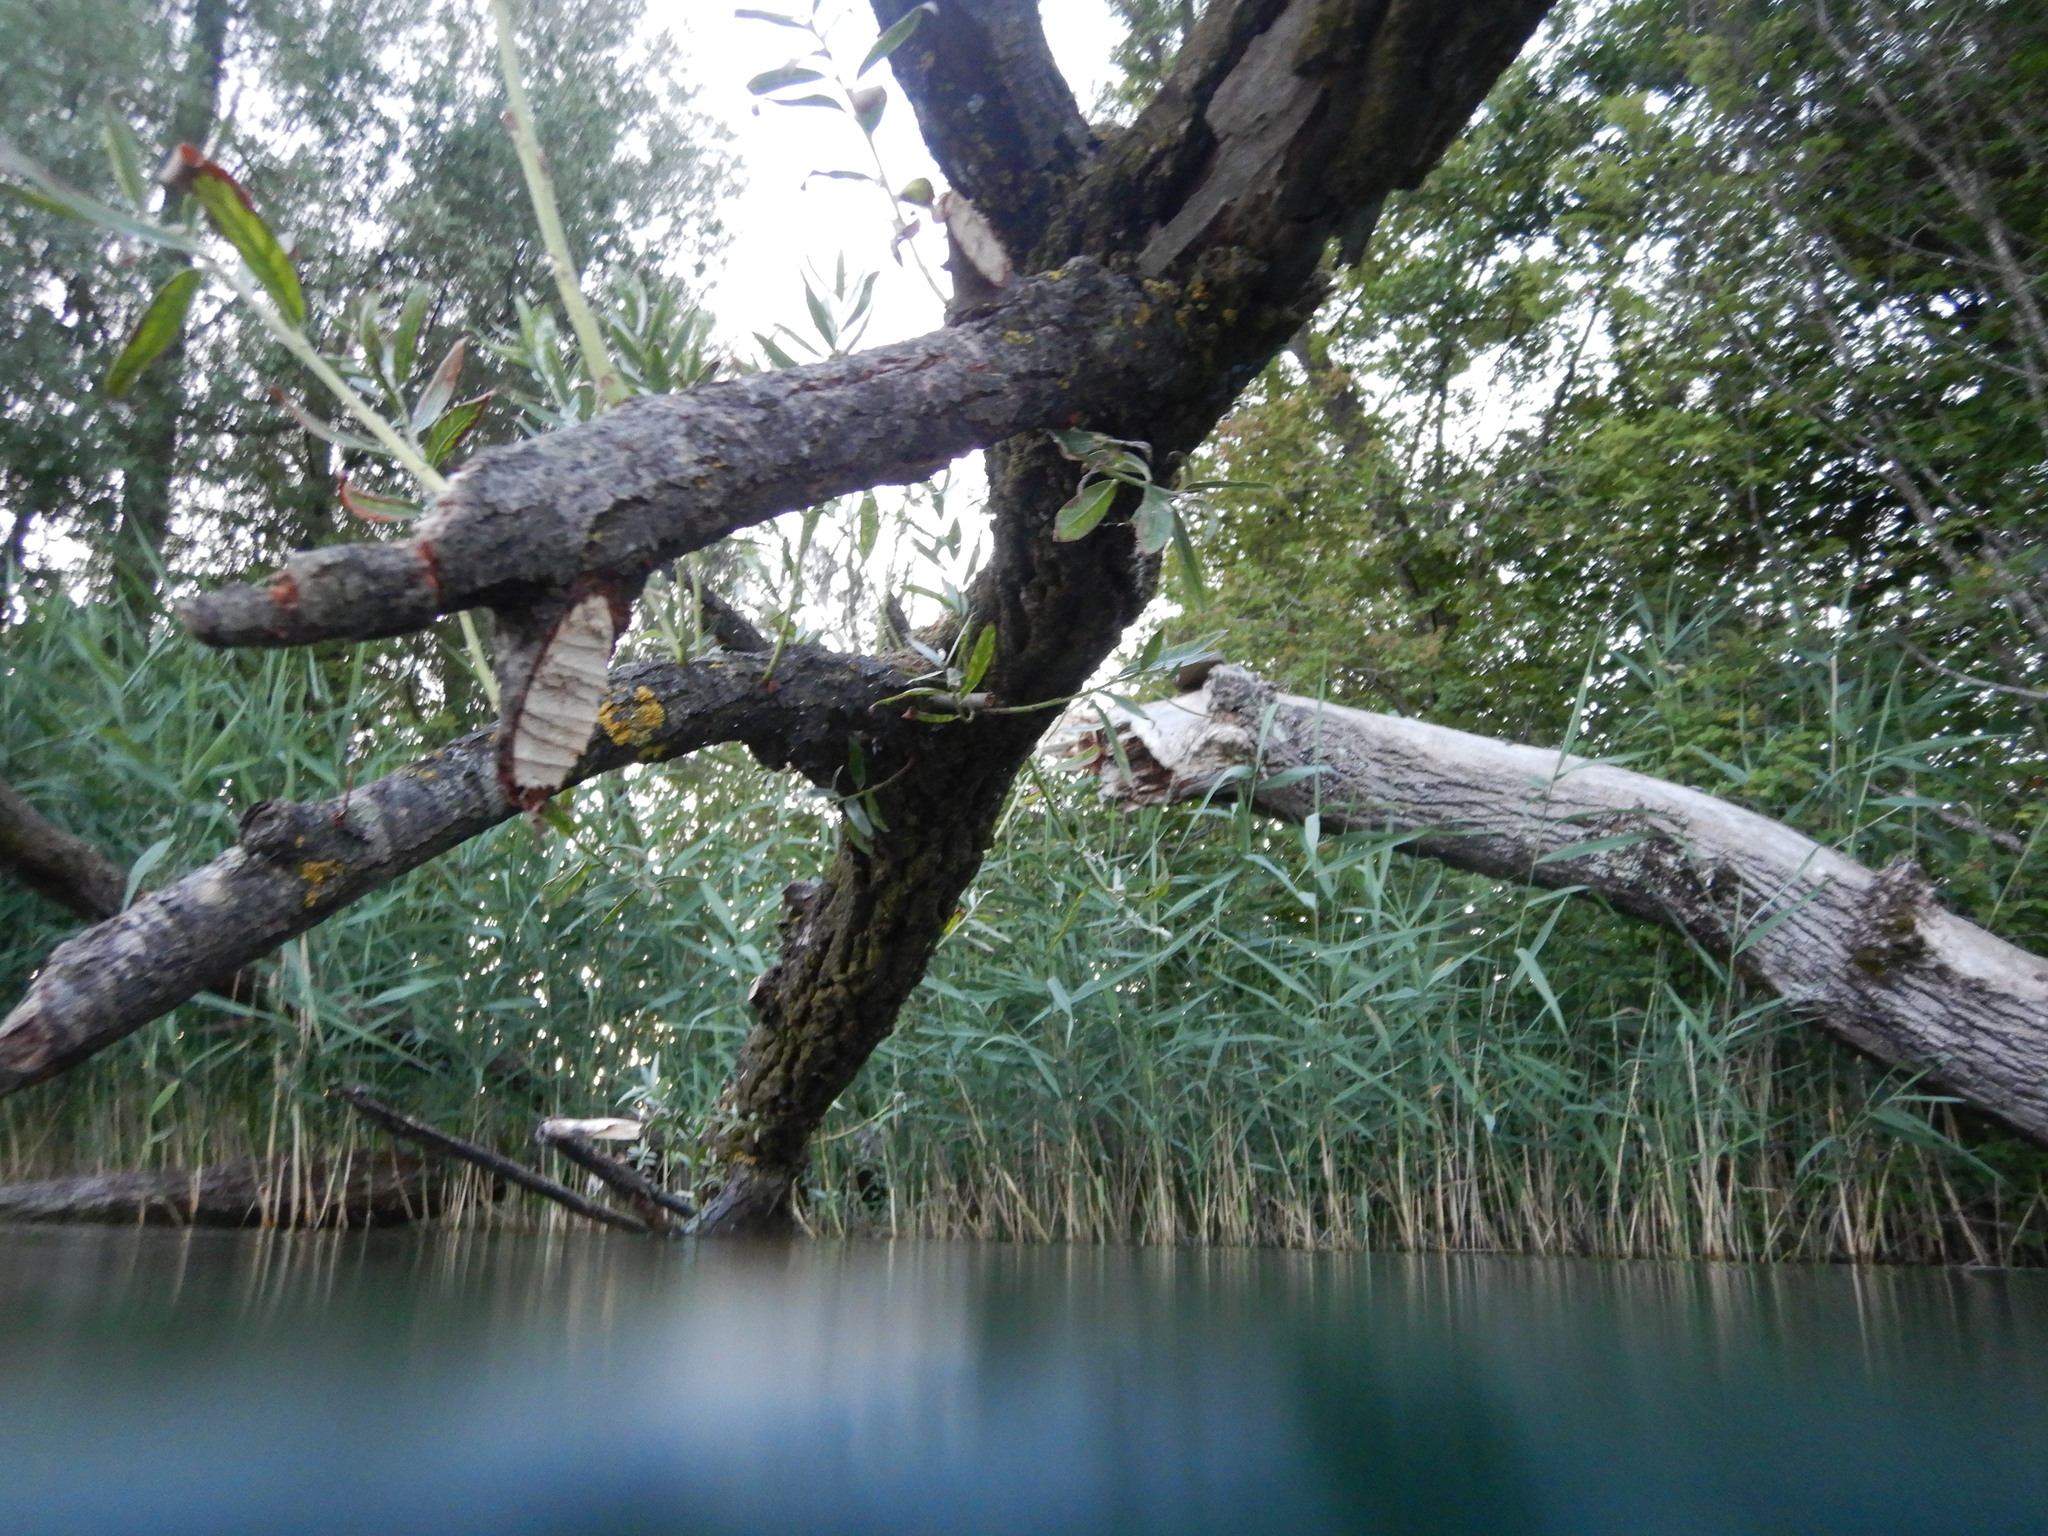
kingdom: Animalia
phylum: Chordata
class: Mammalia
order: Rodentia
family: Castoridae
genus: Castor
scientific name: Castor fiber
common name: Eurasian beaver
